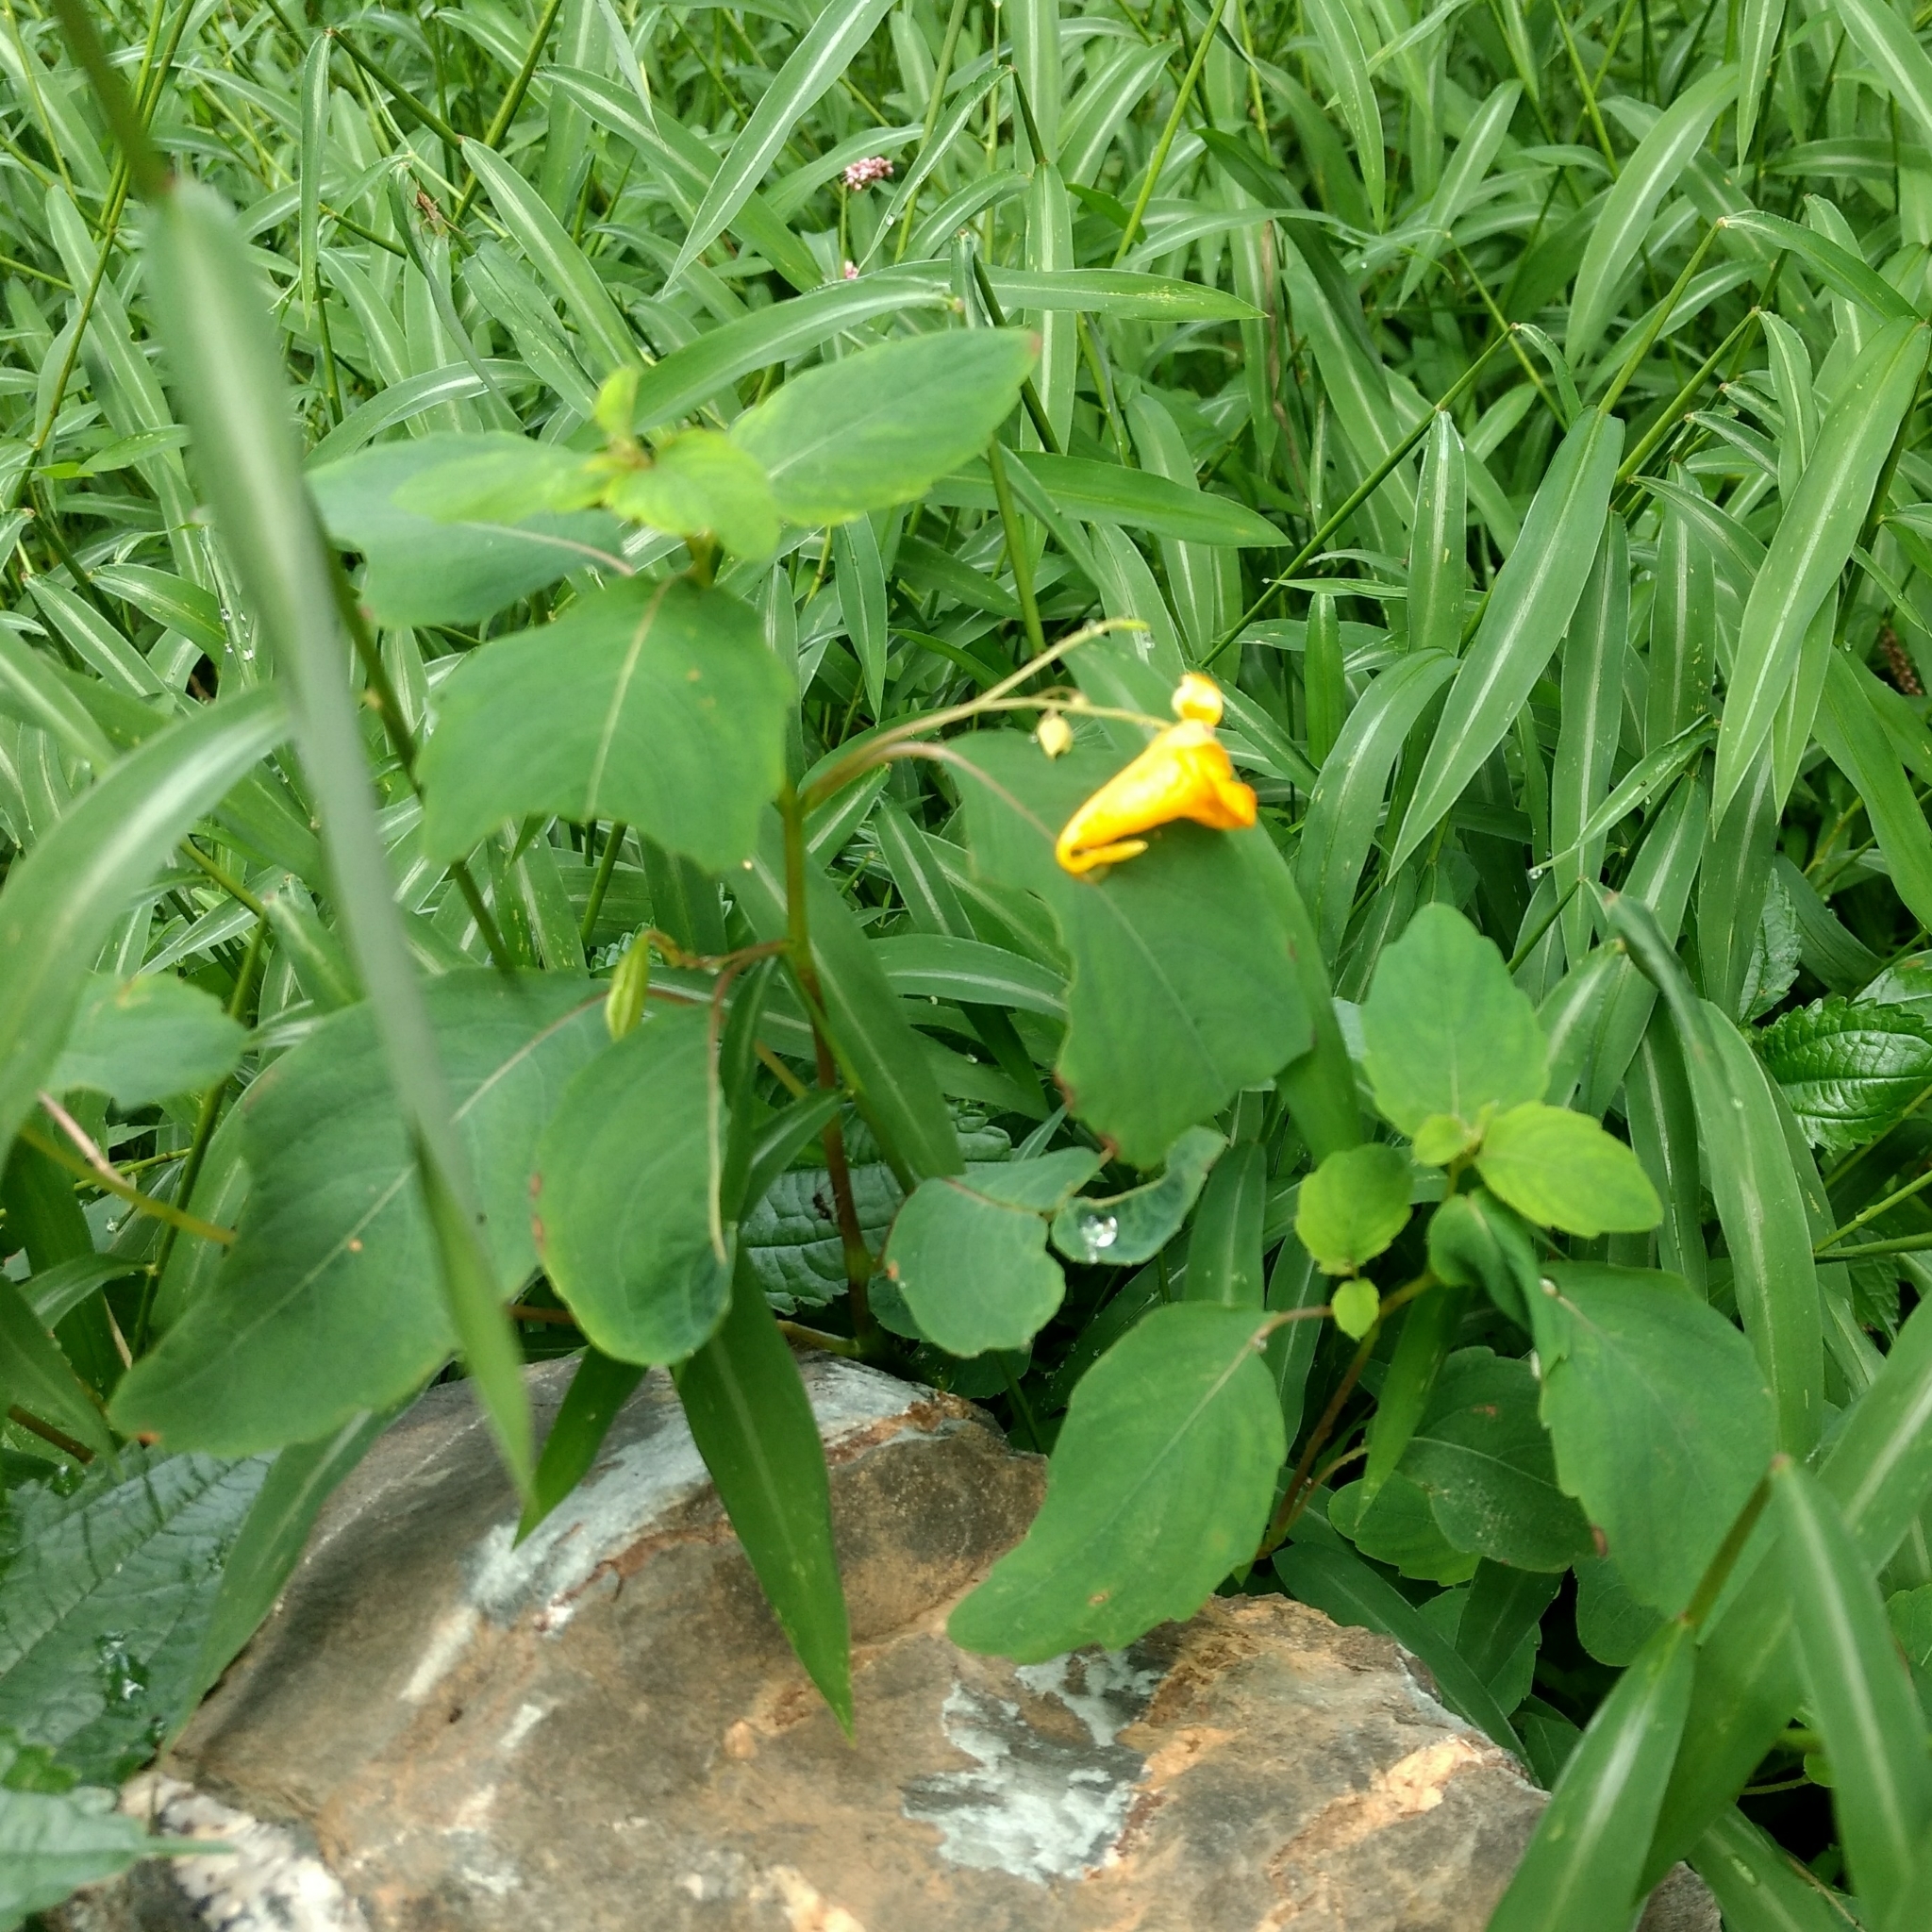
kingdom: Plantae
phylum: Tracheophyta
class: Magnoliopsida
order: Ericales
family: Balsaminaceae
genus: Impatiens
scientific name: Impatiens capensis
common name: Orange balsam
